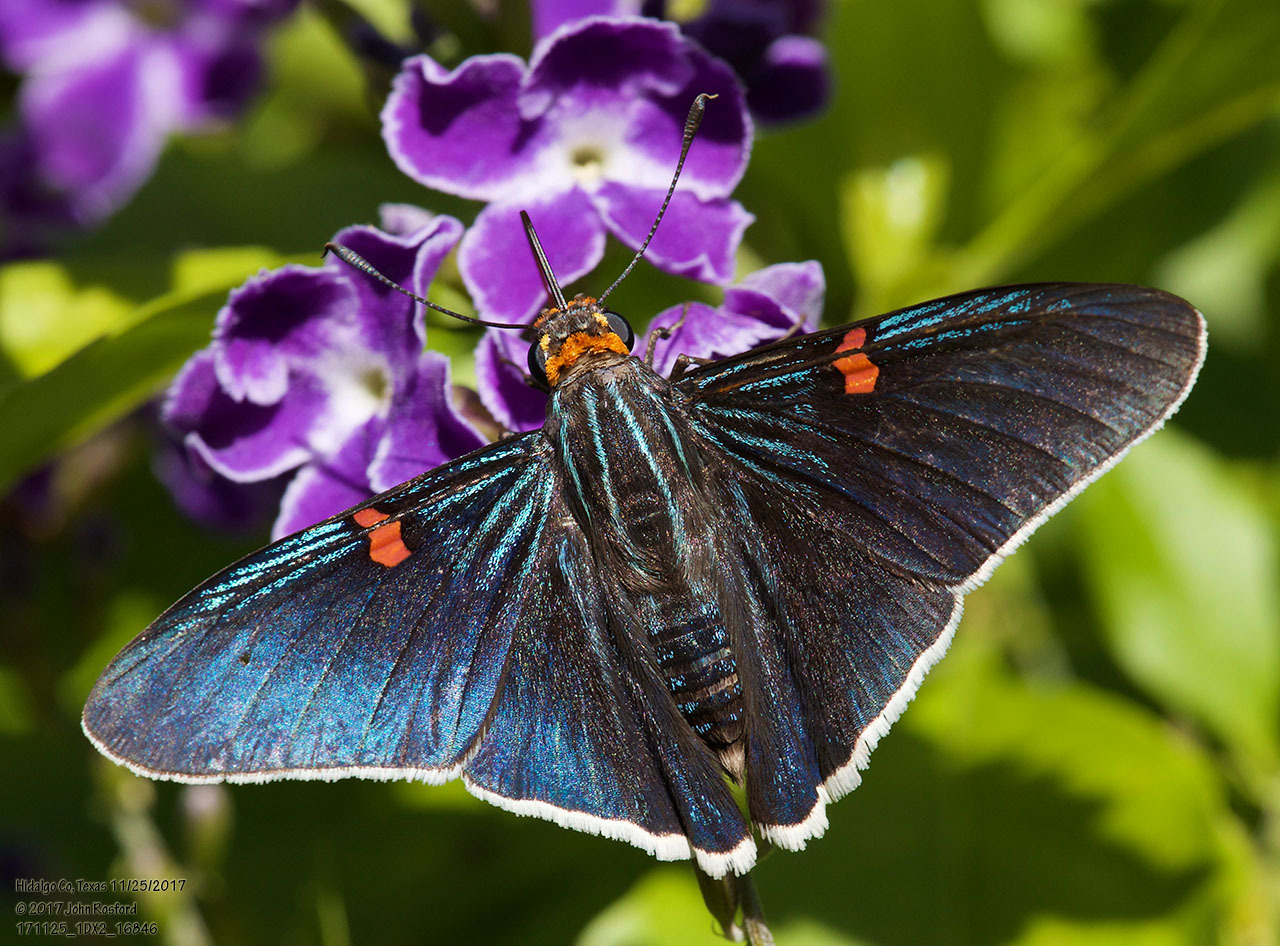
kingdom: Animalia
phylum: Arthropoda
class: Insecta
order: Lepidoptera
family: Hesperiidae
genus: Phocides
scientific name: Phocides lilea
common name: Guava skipper
